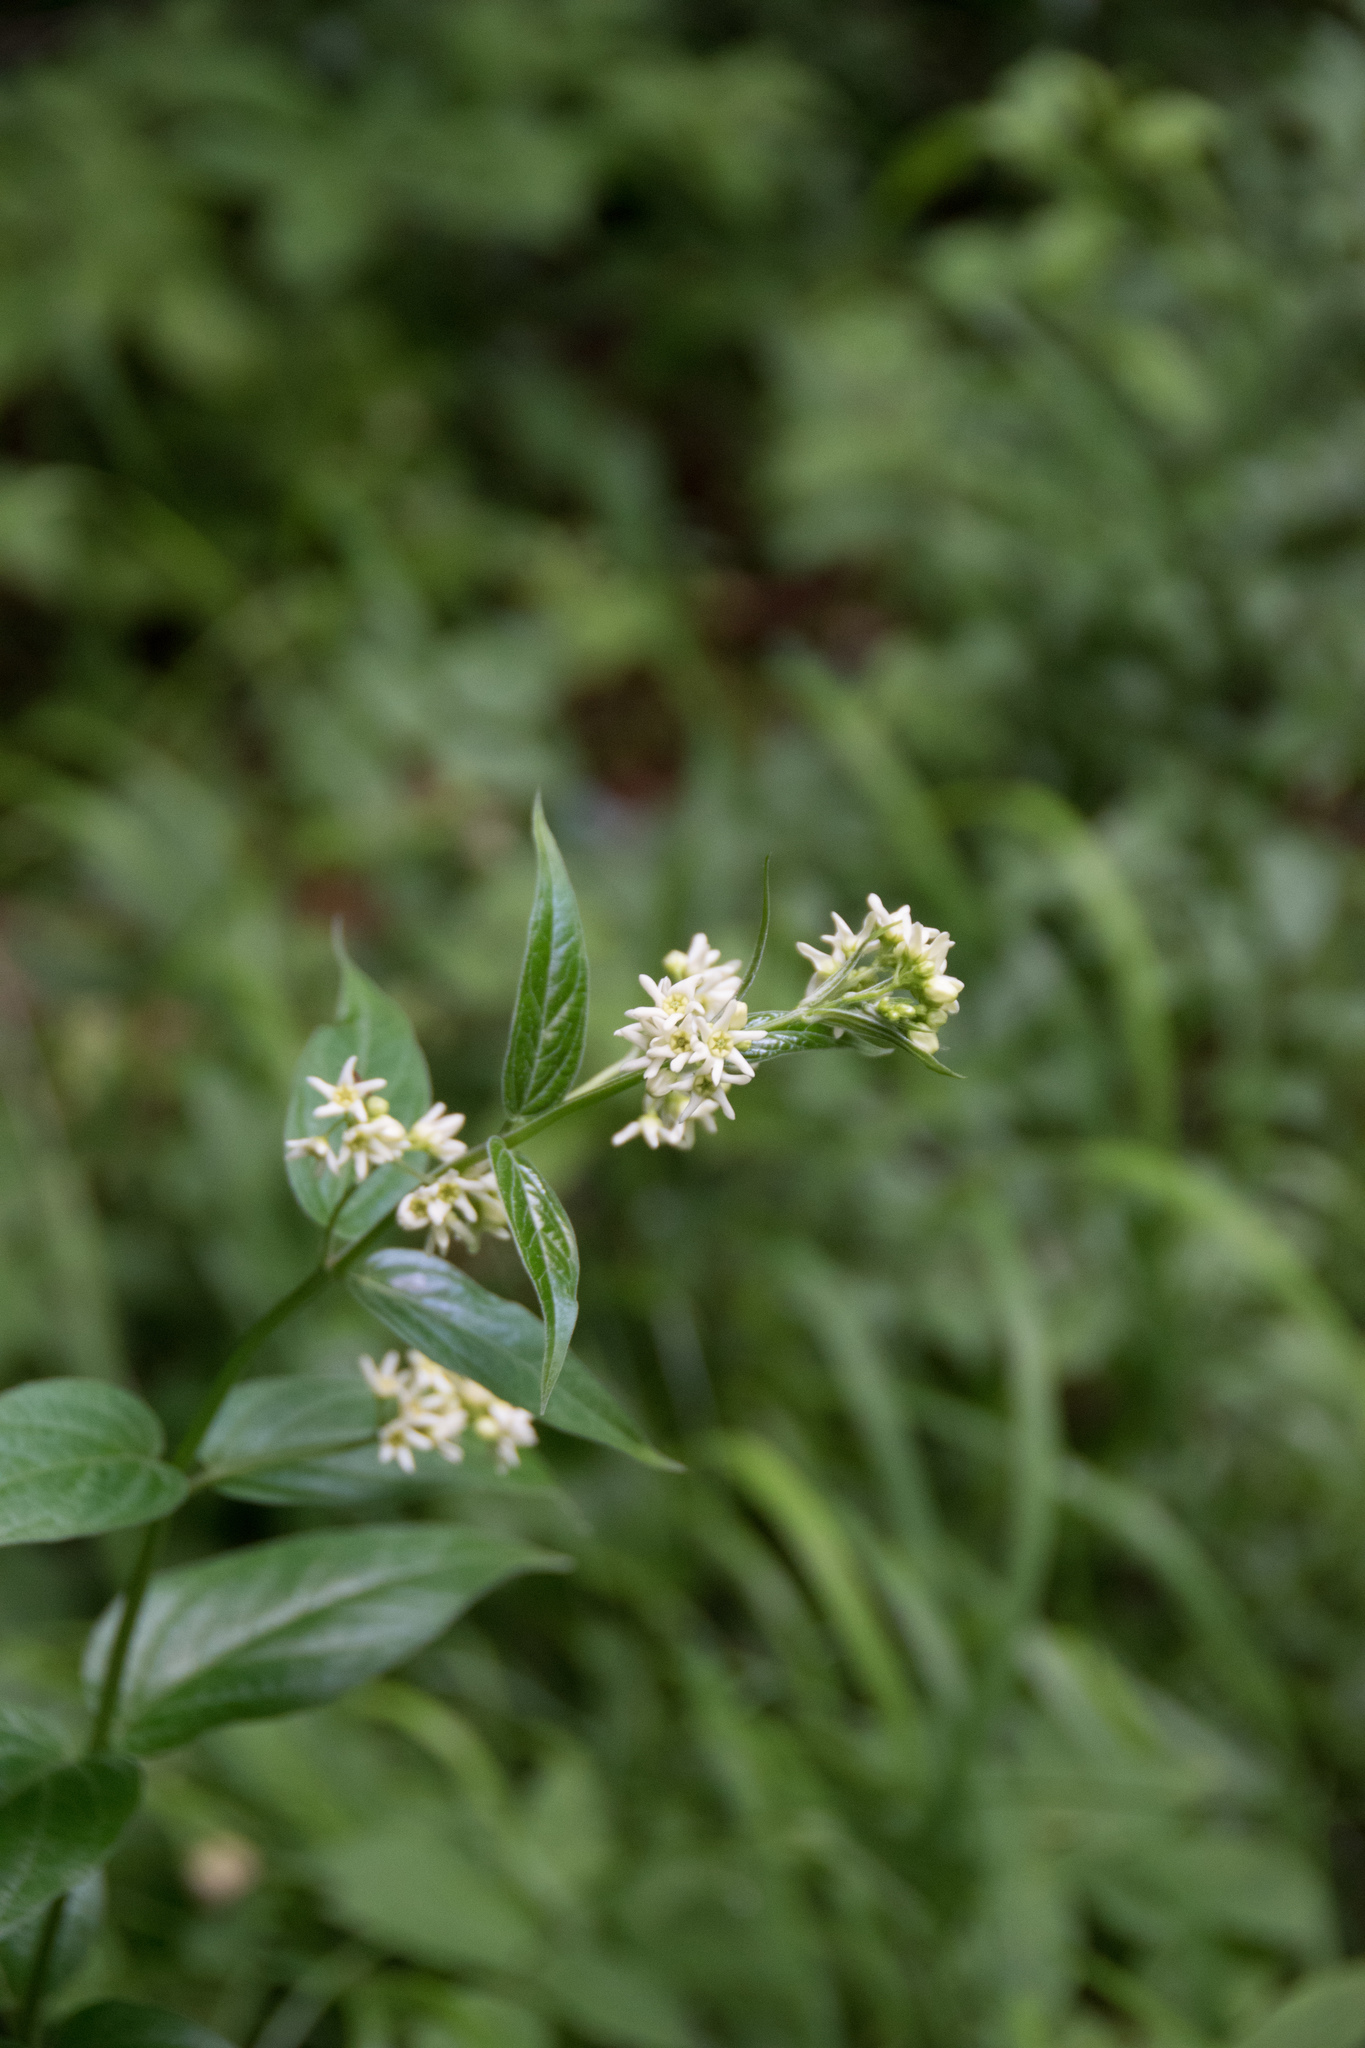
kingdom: Plantae
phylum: Tracheophyta
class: Magnoliopsida
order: Gentianales
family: Apocynaceae
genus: Vincetoxicum
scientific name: Vincetoxicum hirundinaria
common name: White swallowwort
